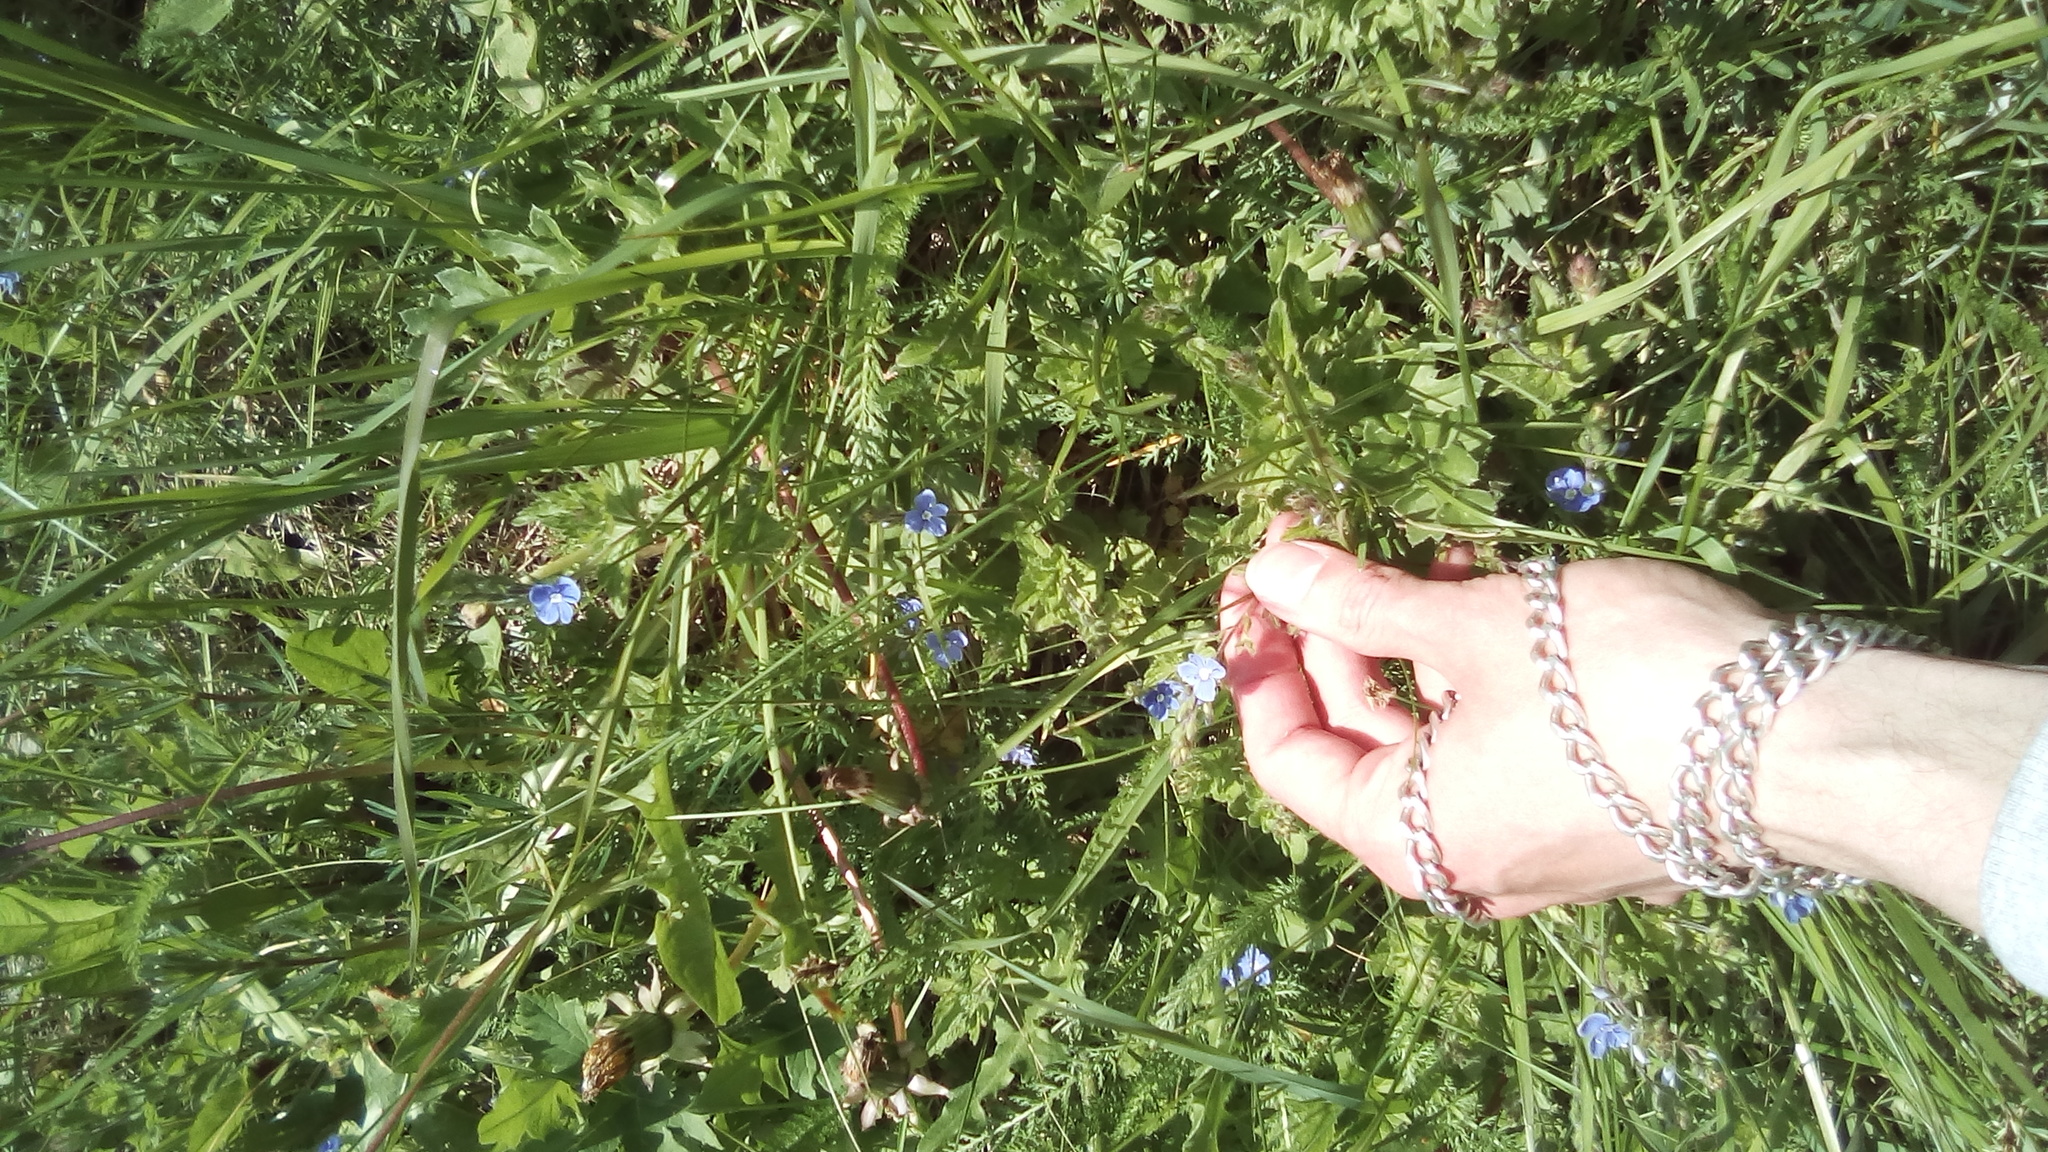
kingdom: Plantae
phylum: Tracheophyta
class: Magnoliopsida
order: Lamiales
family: Plantaginaceae
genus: Veronica
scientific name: Veronica chamaedrys
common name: Germander speedwell
